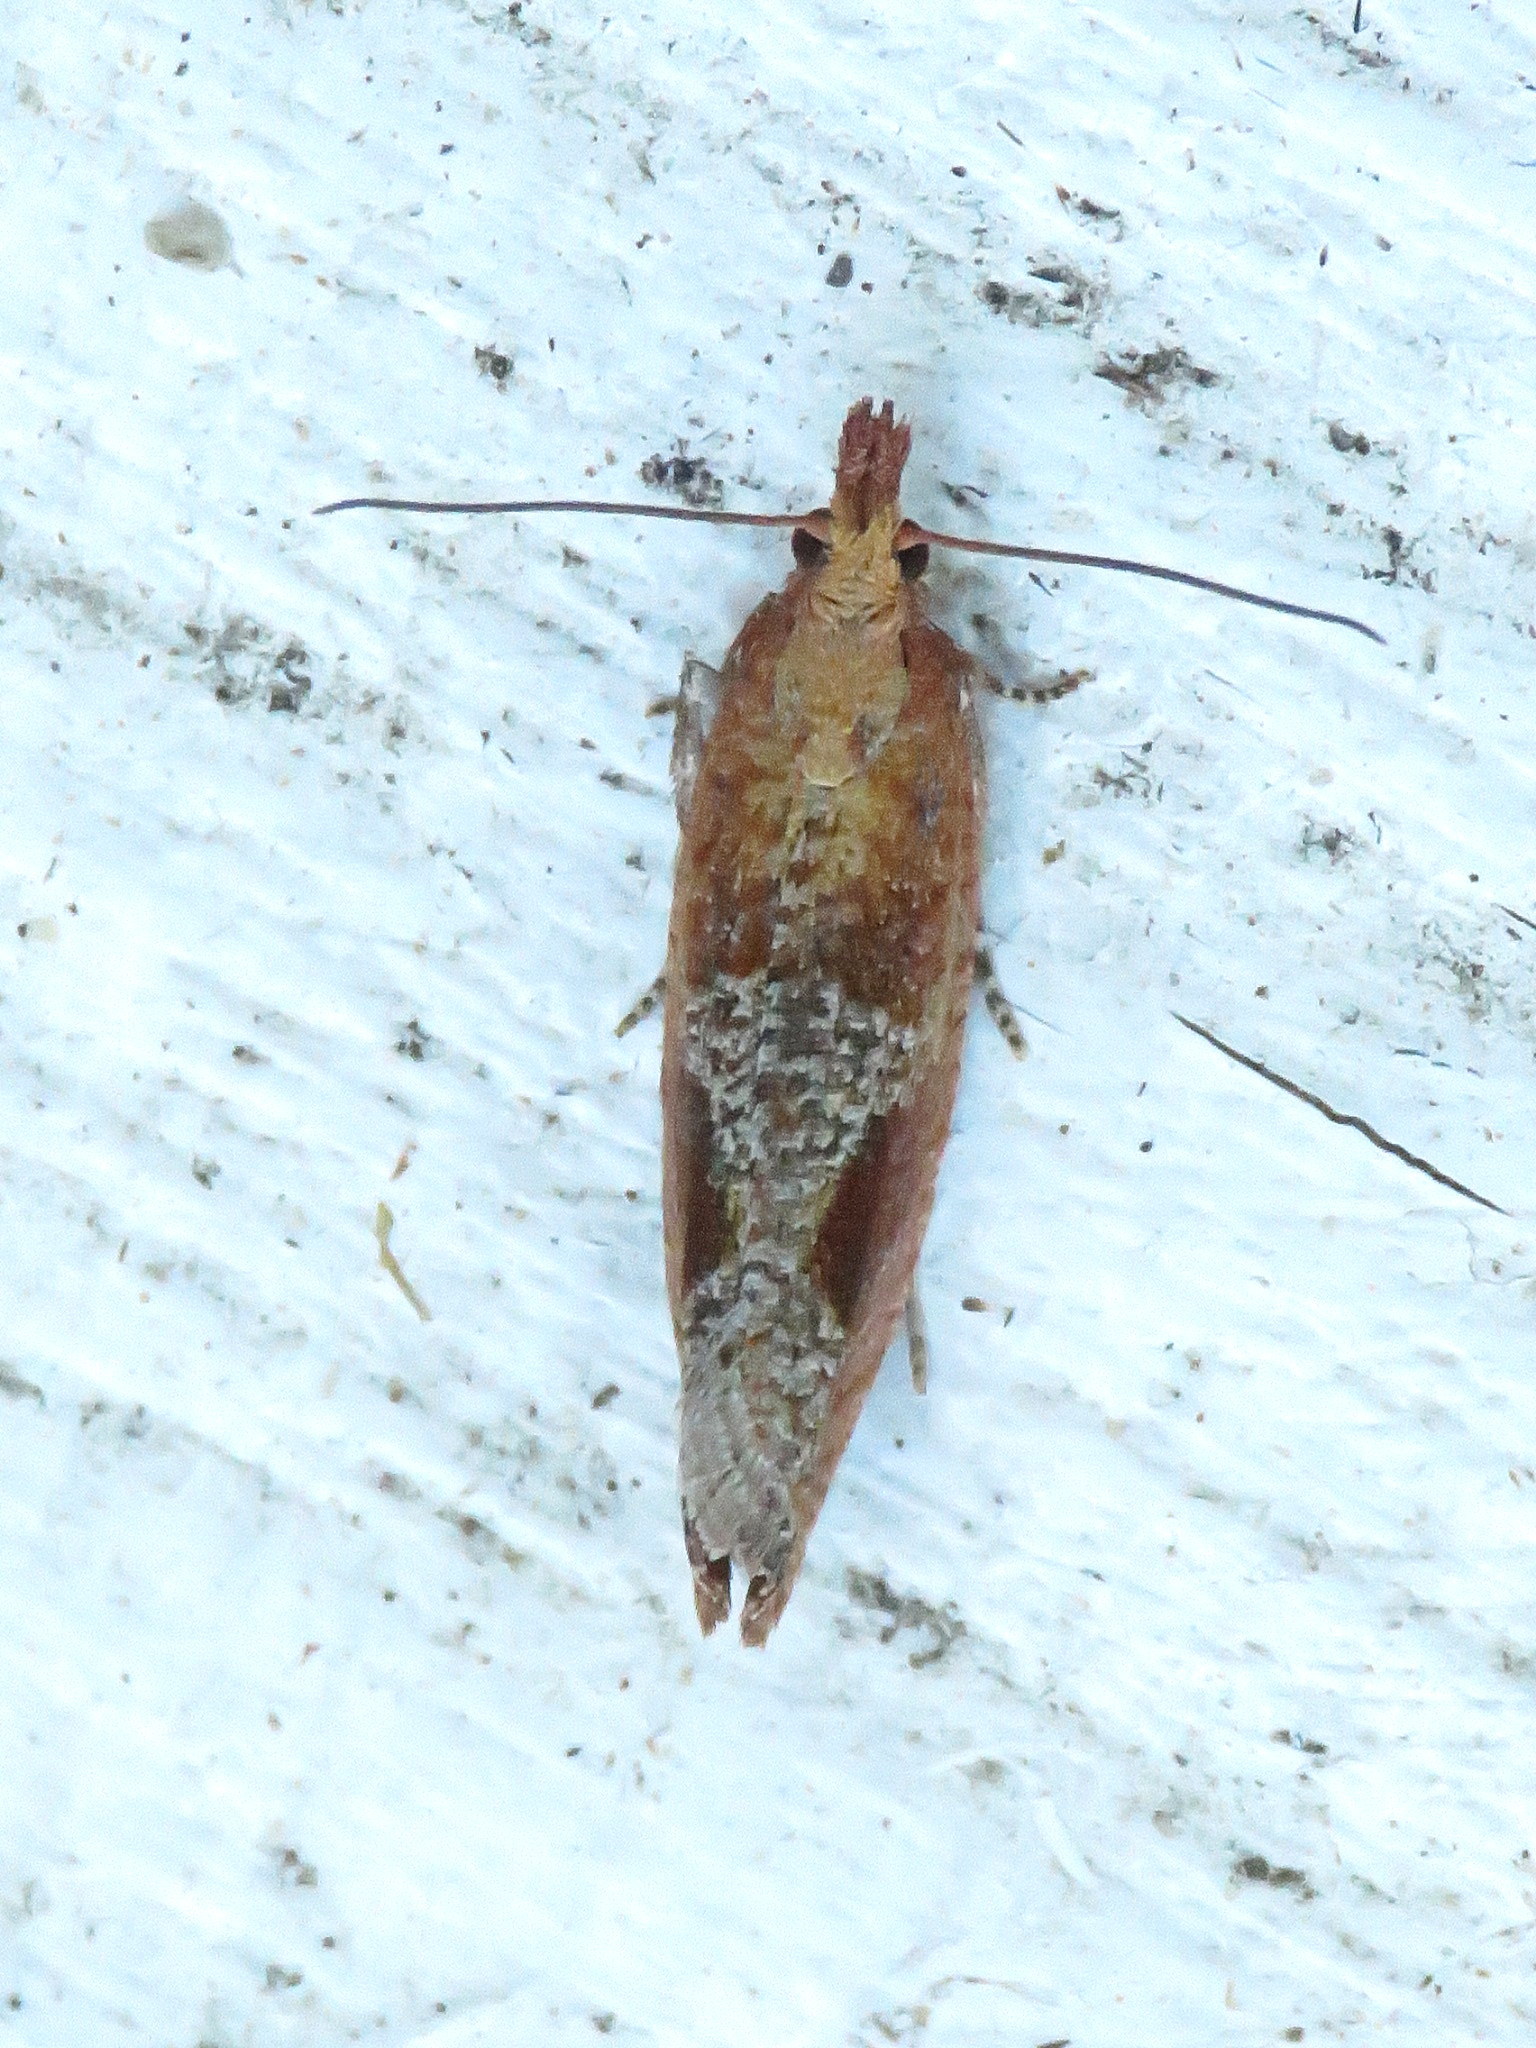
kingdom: Animalia
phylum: Arthropoda
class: Insecta
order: Lepidoptera
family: Tortricidae
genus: Epinotia
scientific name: Epinotia septemberana
